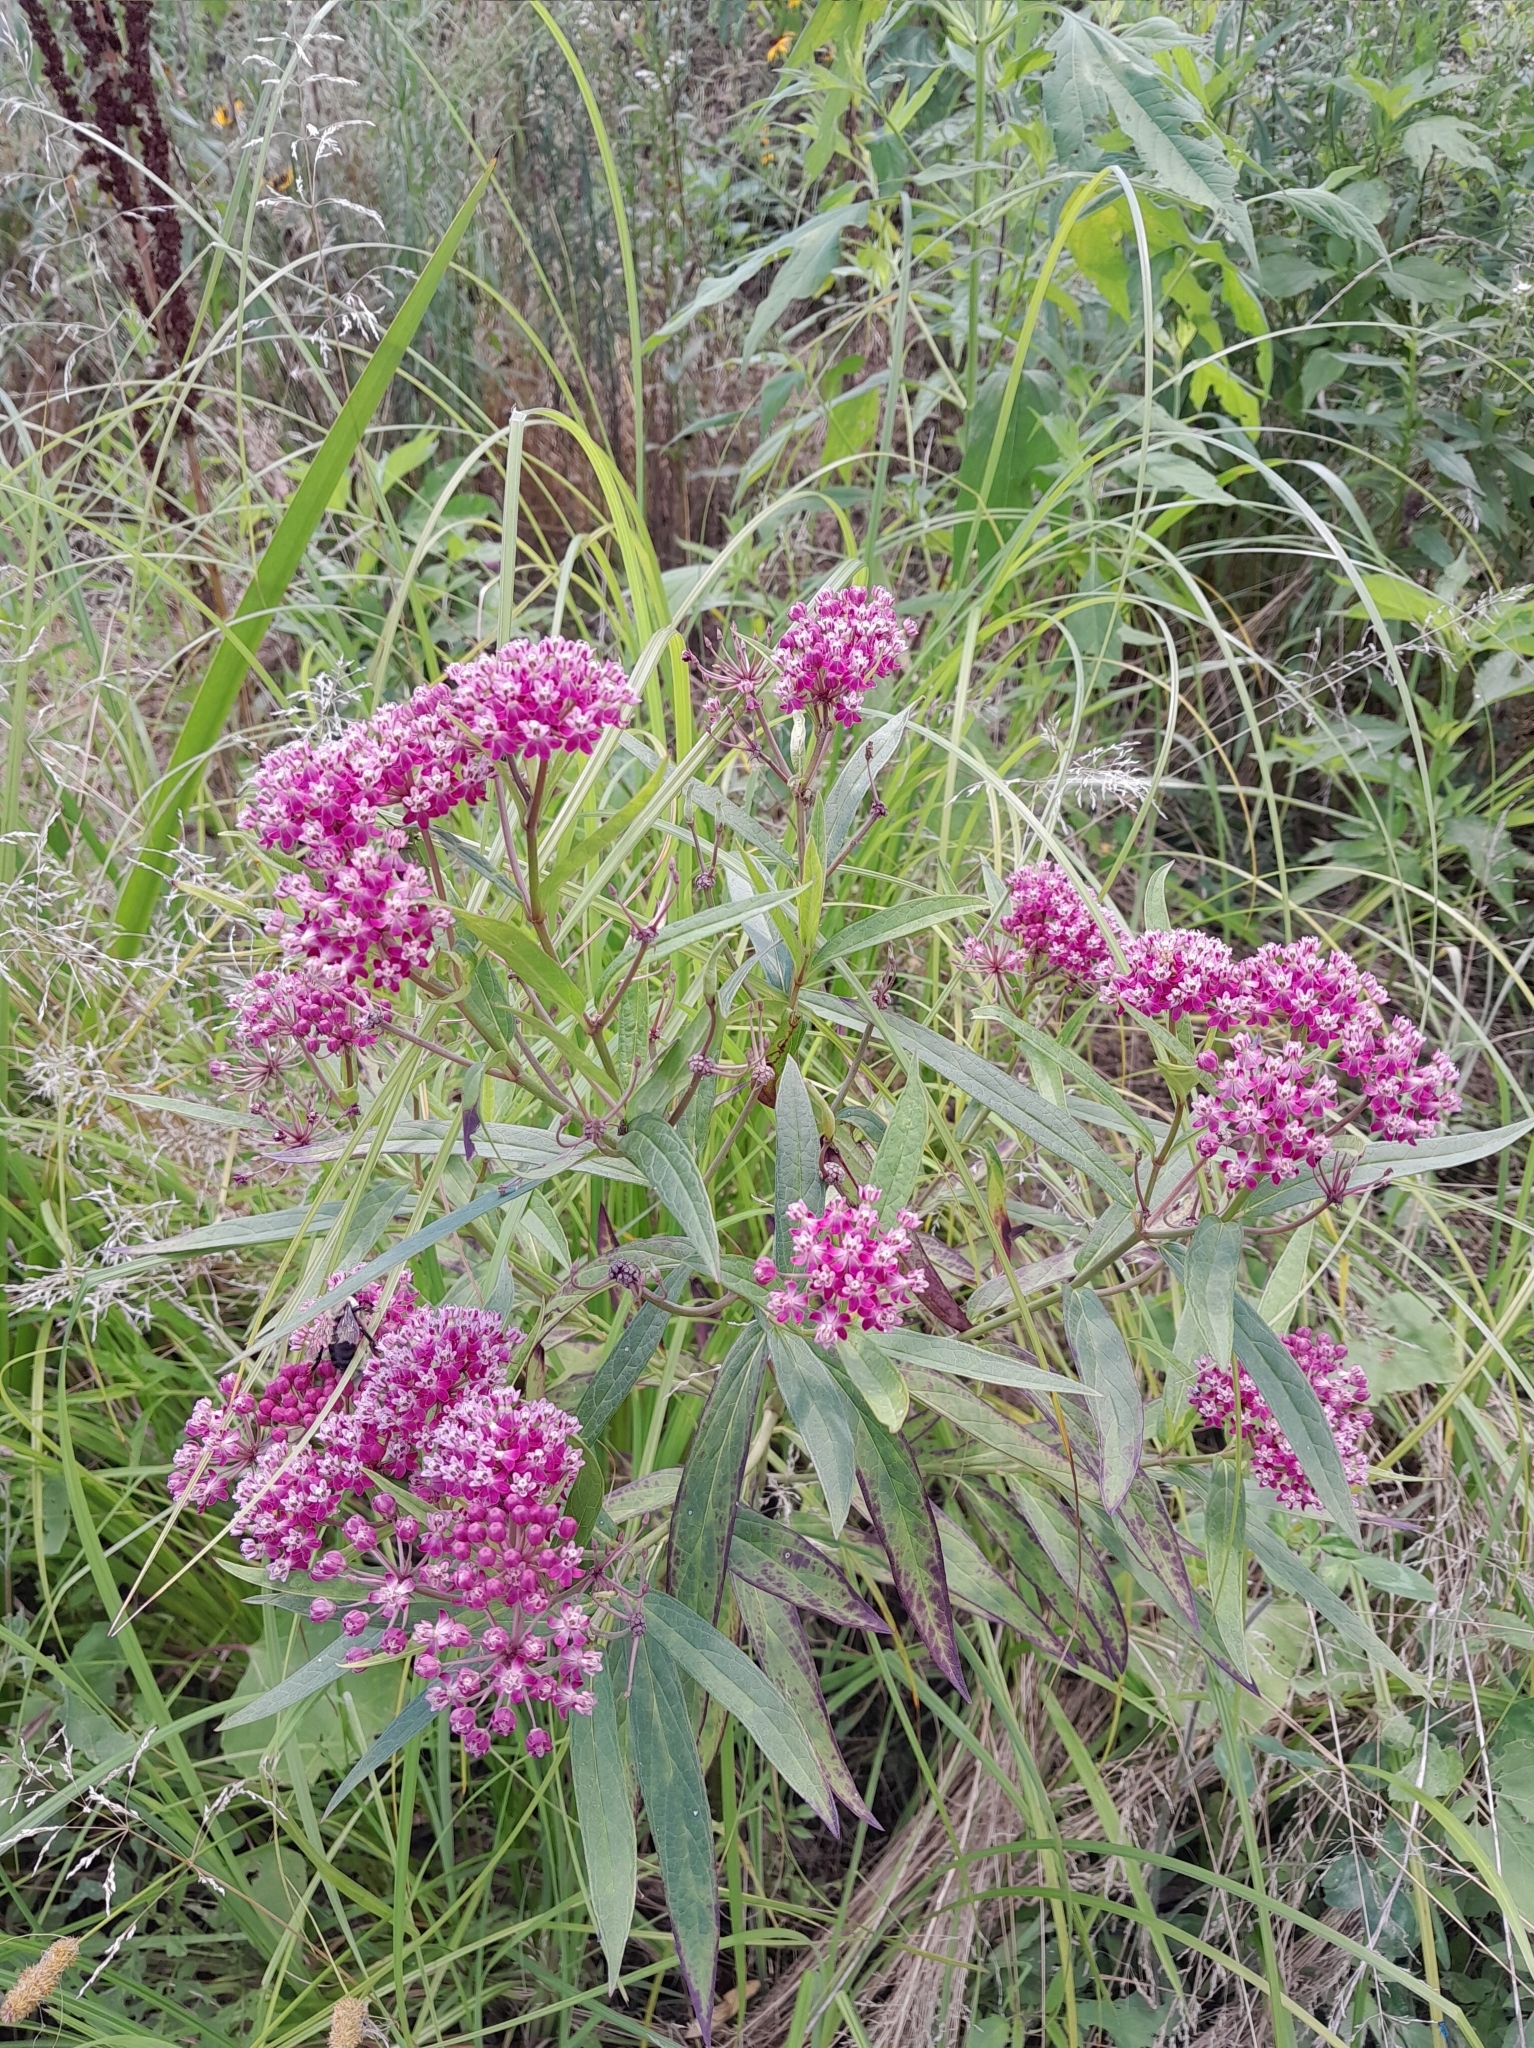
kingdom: Plantae
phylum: Tracheophyta
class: Magnoliopsida
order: Gentianales
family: Apocynaceae
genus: Asclepias
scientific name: Asclepias incarnata
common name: Swamp milkweed
